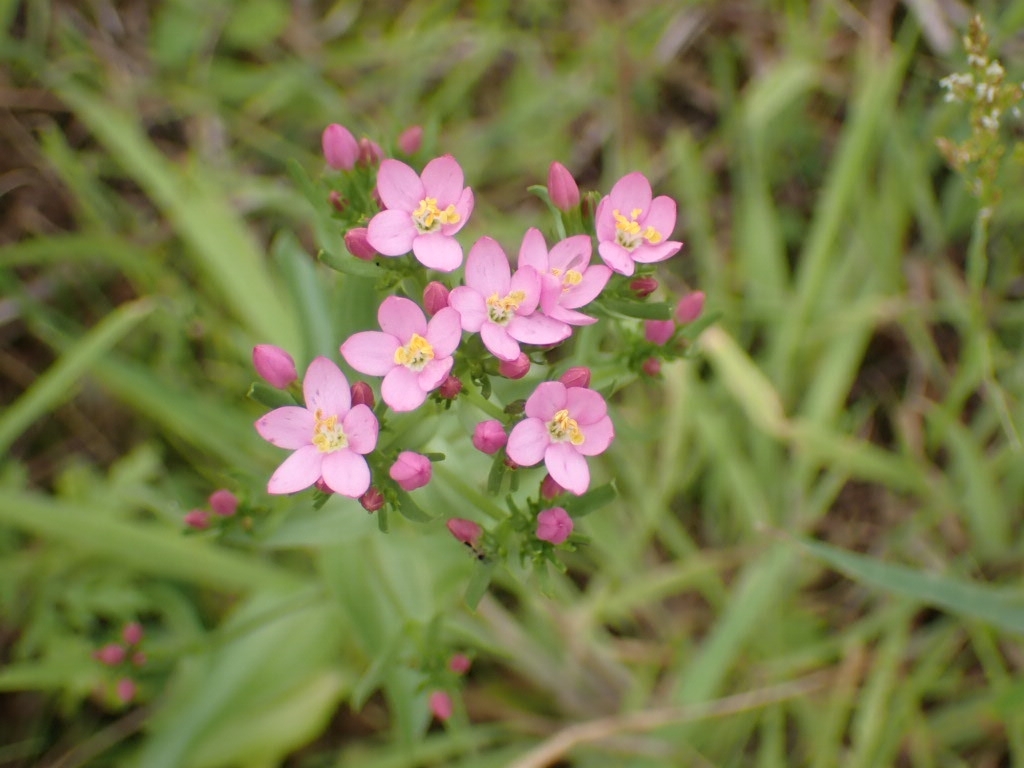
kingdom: Plantae
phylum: Tracheophyta
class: Magnoliopsida
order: Gentianales
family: Gentianaceae
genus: Centaurium
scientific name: Centaurium erythraea
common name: Common centaury
